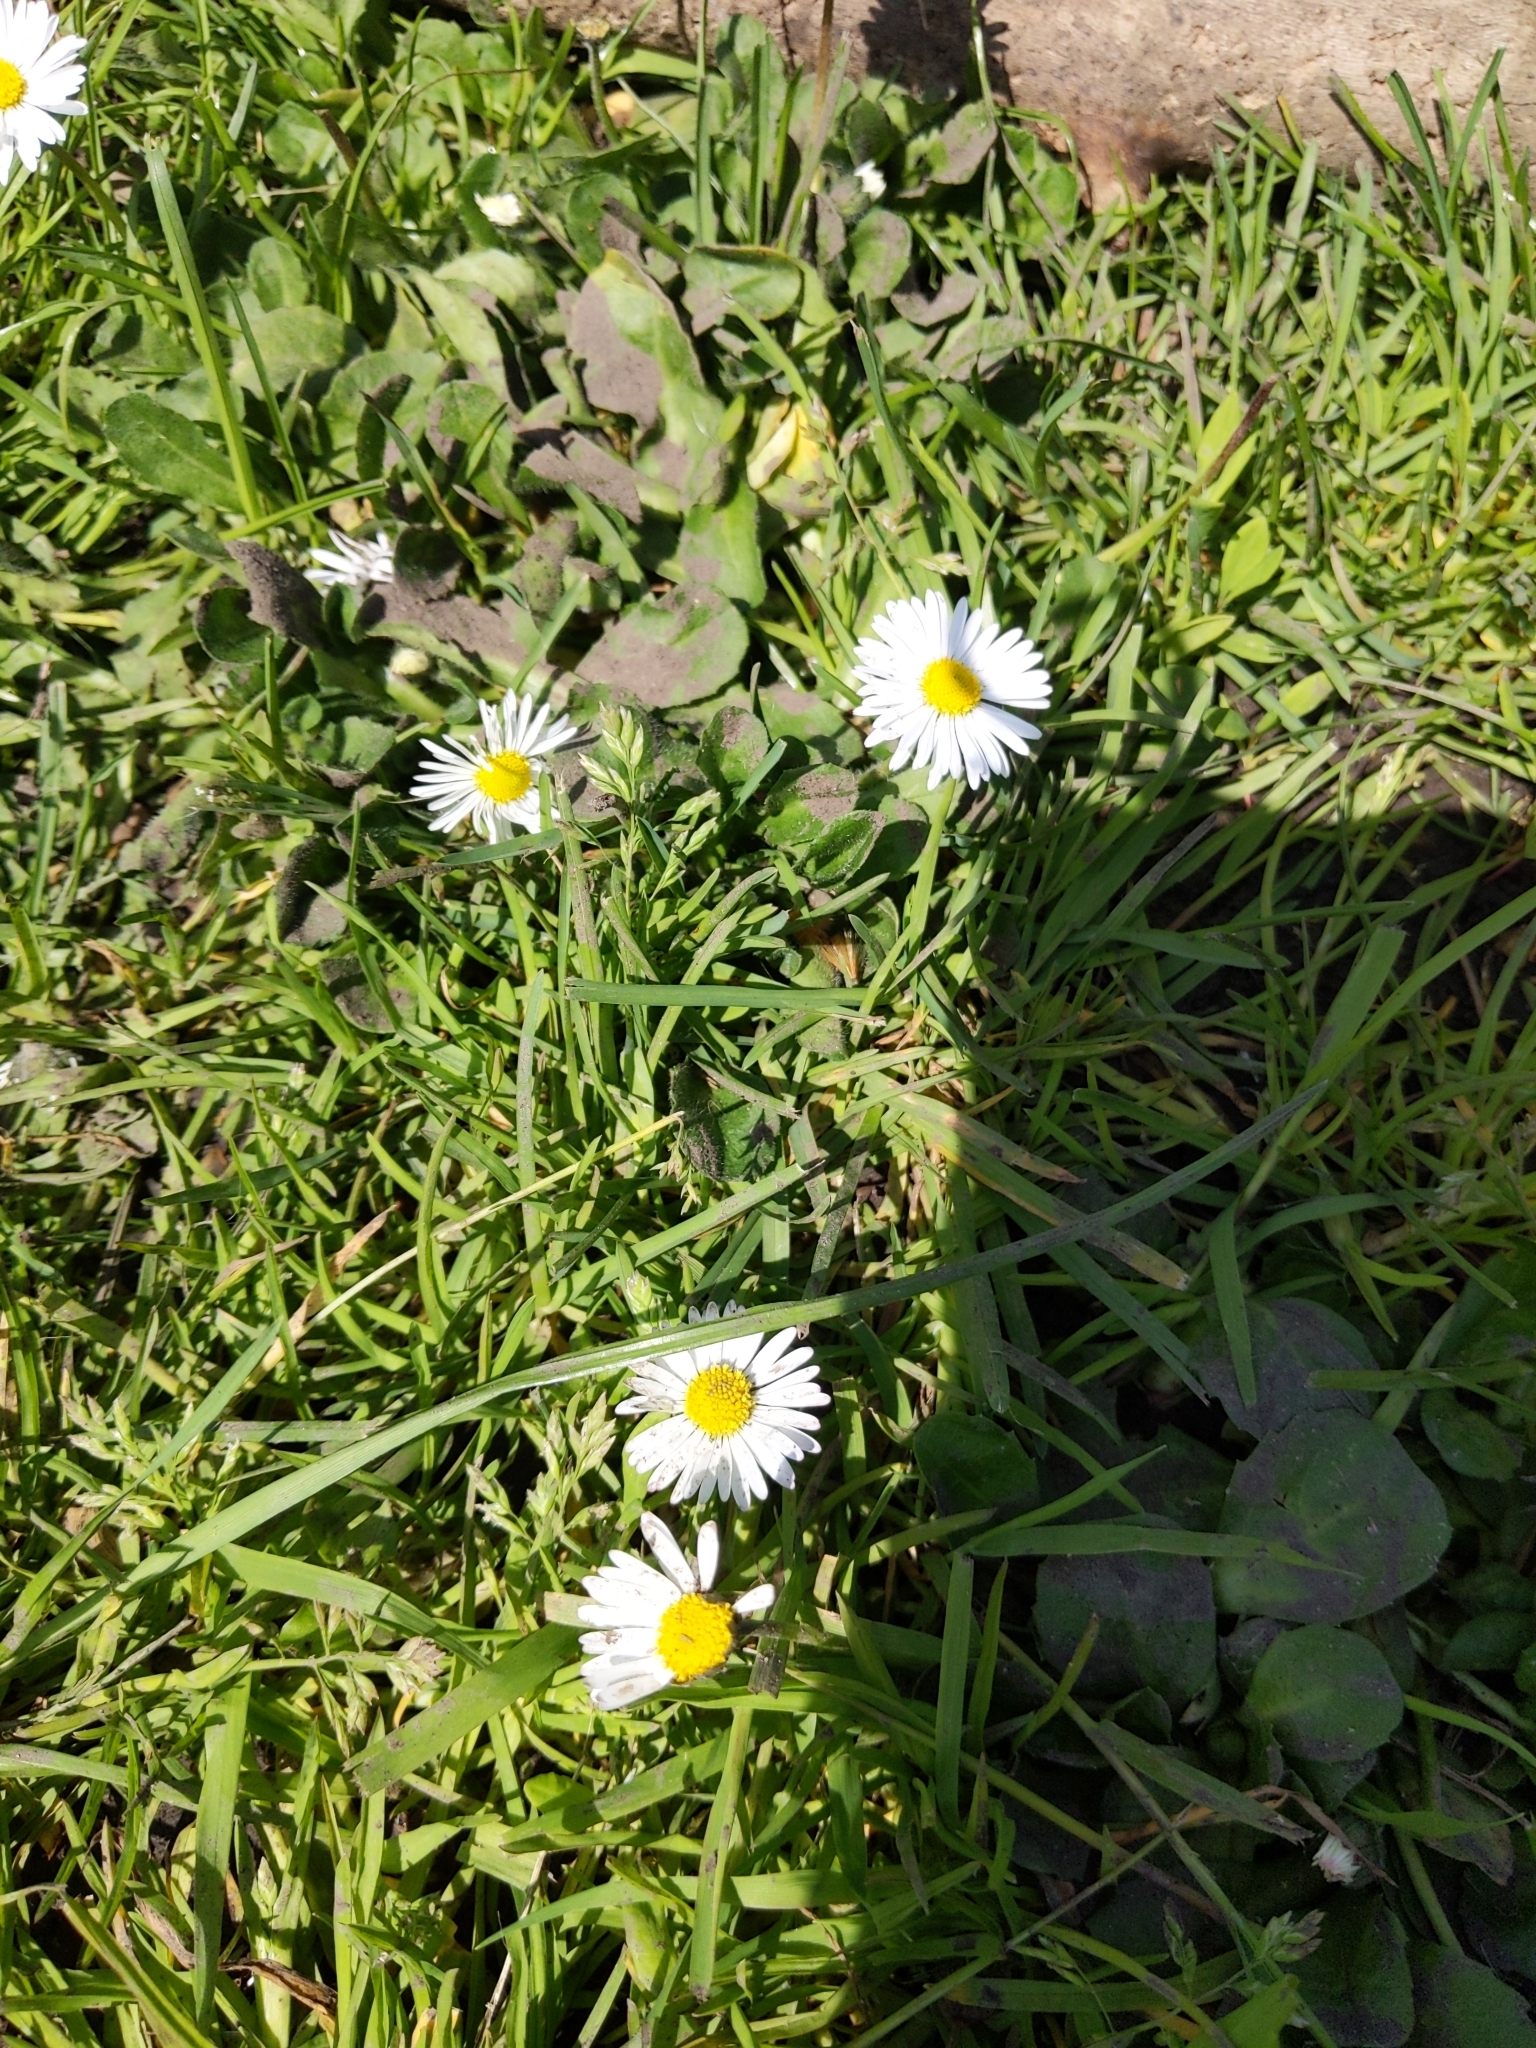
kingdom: Plantae
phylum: Tracheophyta
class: Magnoliopsida
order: Asterales
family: Asteraceae
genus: Bellis
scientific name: Bellis perennis
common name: Lawndaisy
